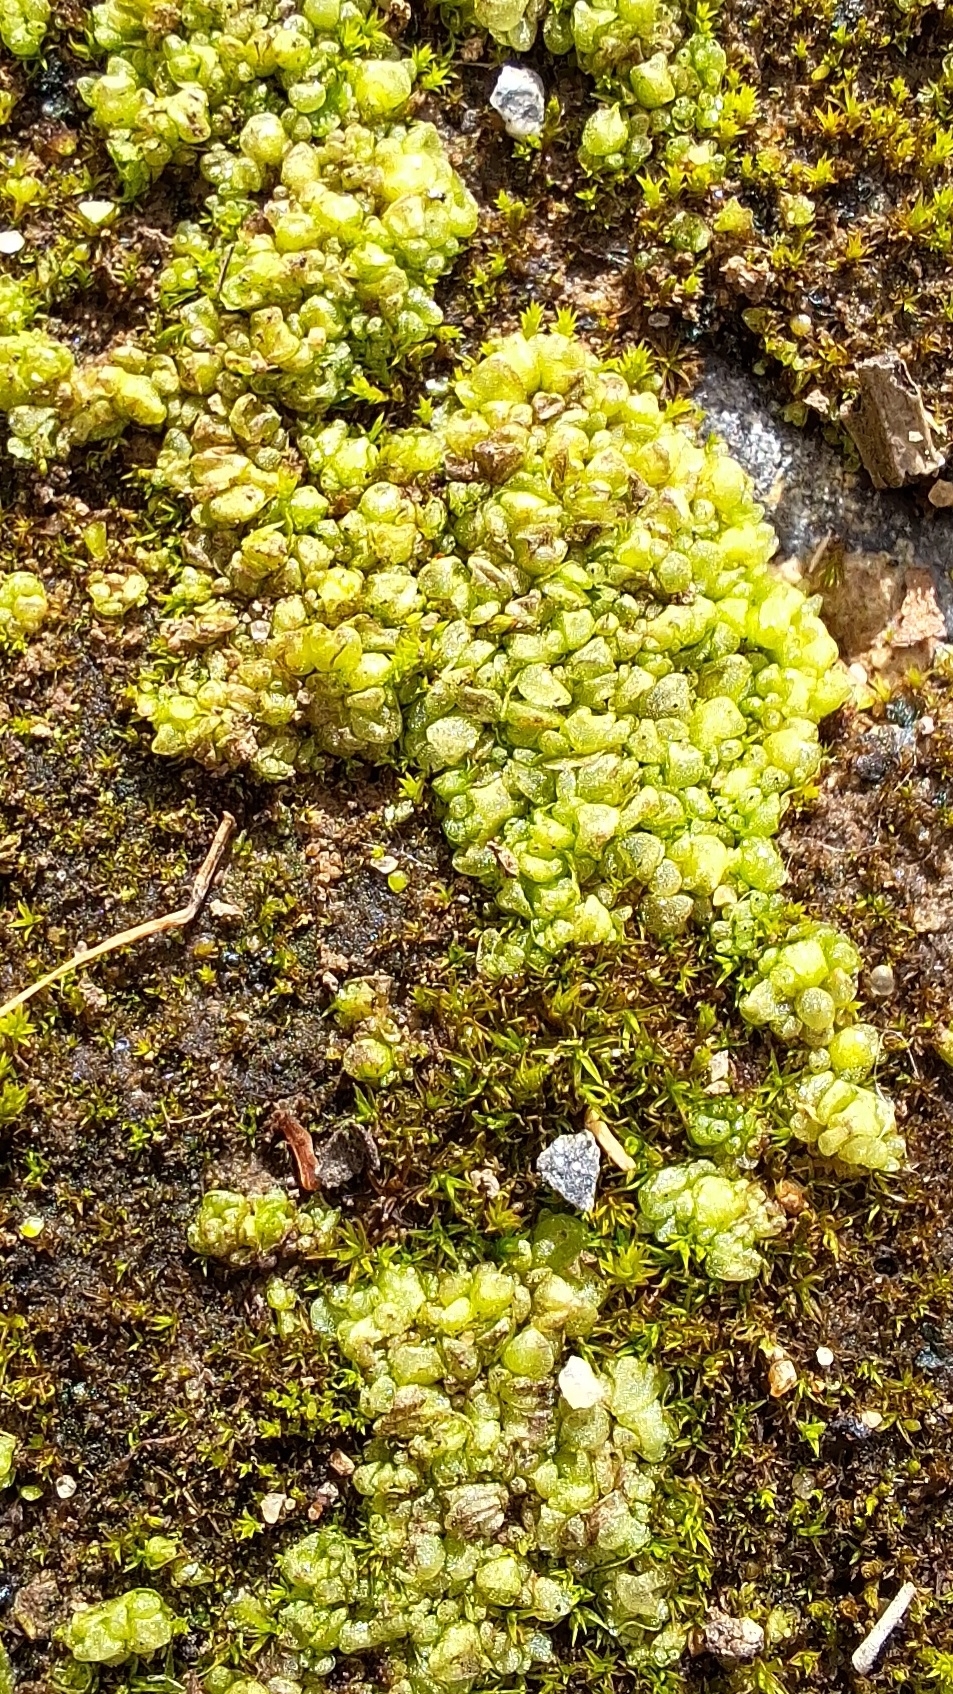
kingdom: Plantae
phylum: Marchantiophyta
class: Marchantiopsida
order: Sphaerocarpales
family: Sphaerocarpaceae
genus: Sphaerocarpos
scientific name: Sphaerocarpos texanus
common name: Texas balloonwort
